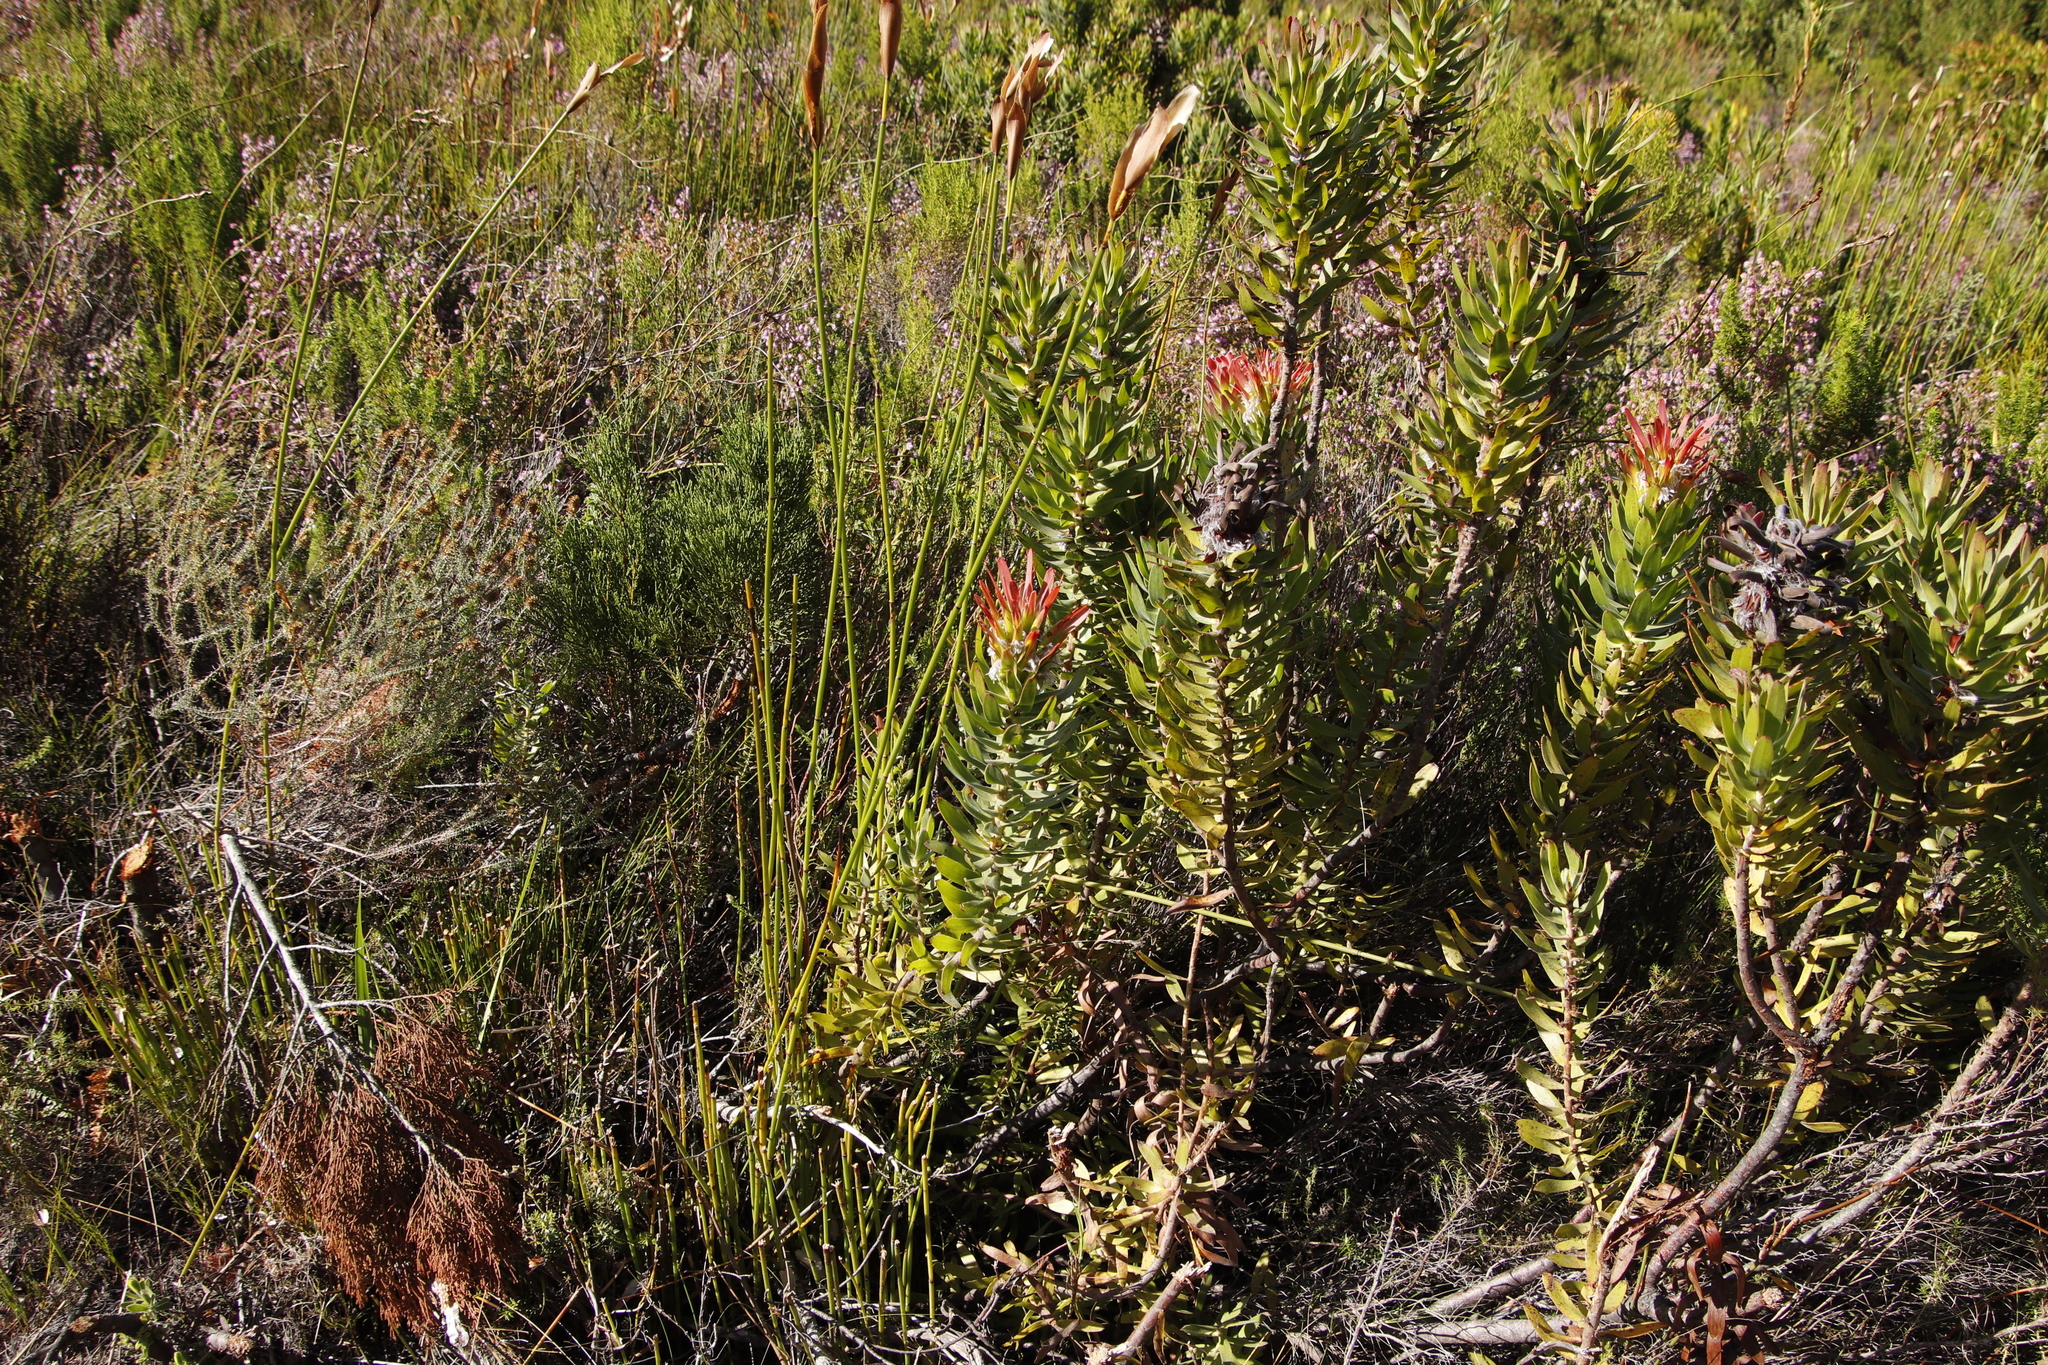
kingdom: Plantae
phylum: Tracheophyta
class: Magnoliopsida
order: Proteales
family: Proteaceae
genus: Mimetes
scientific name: Mimetes cucullatus
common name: Common pagoda
